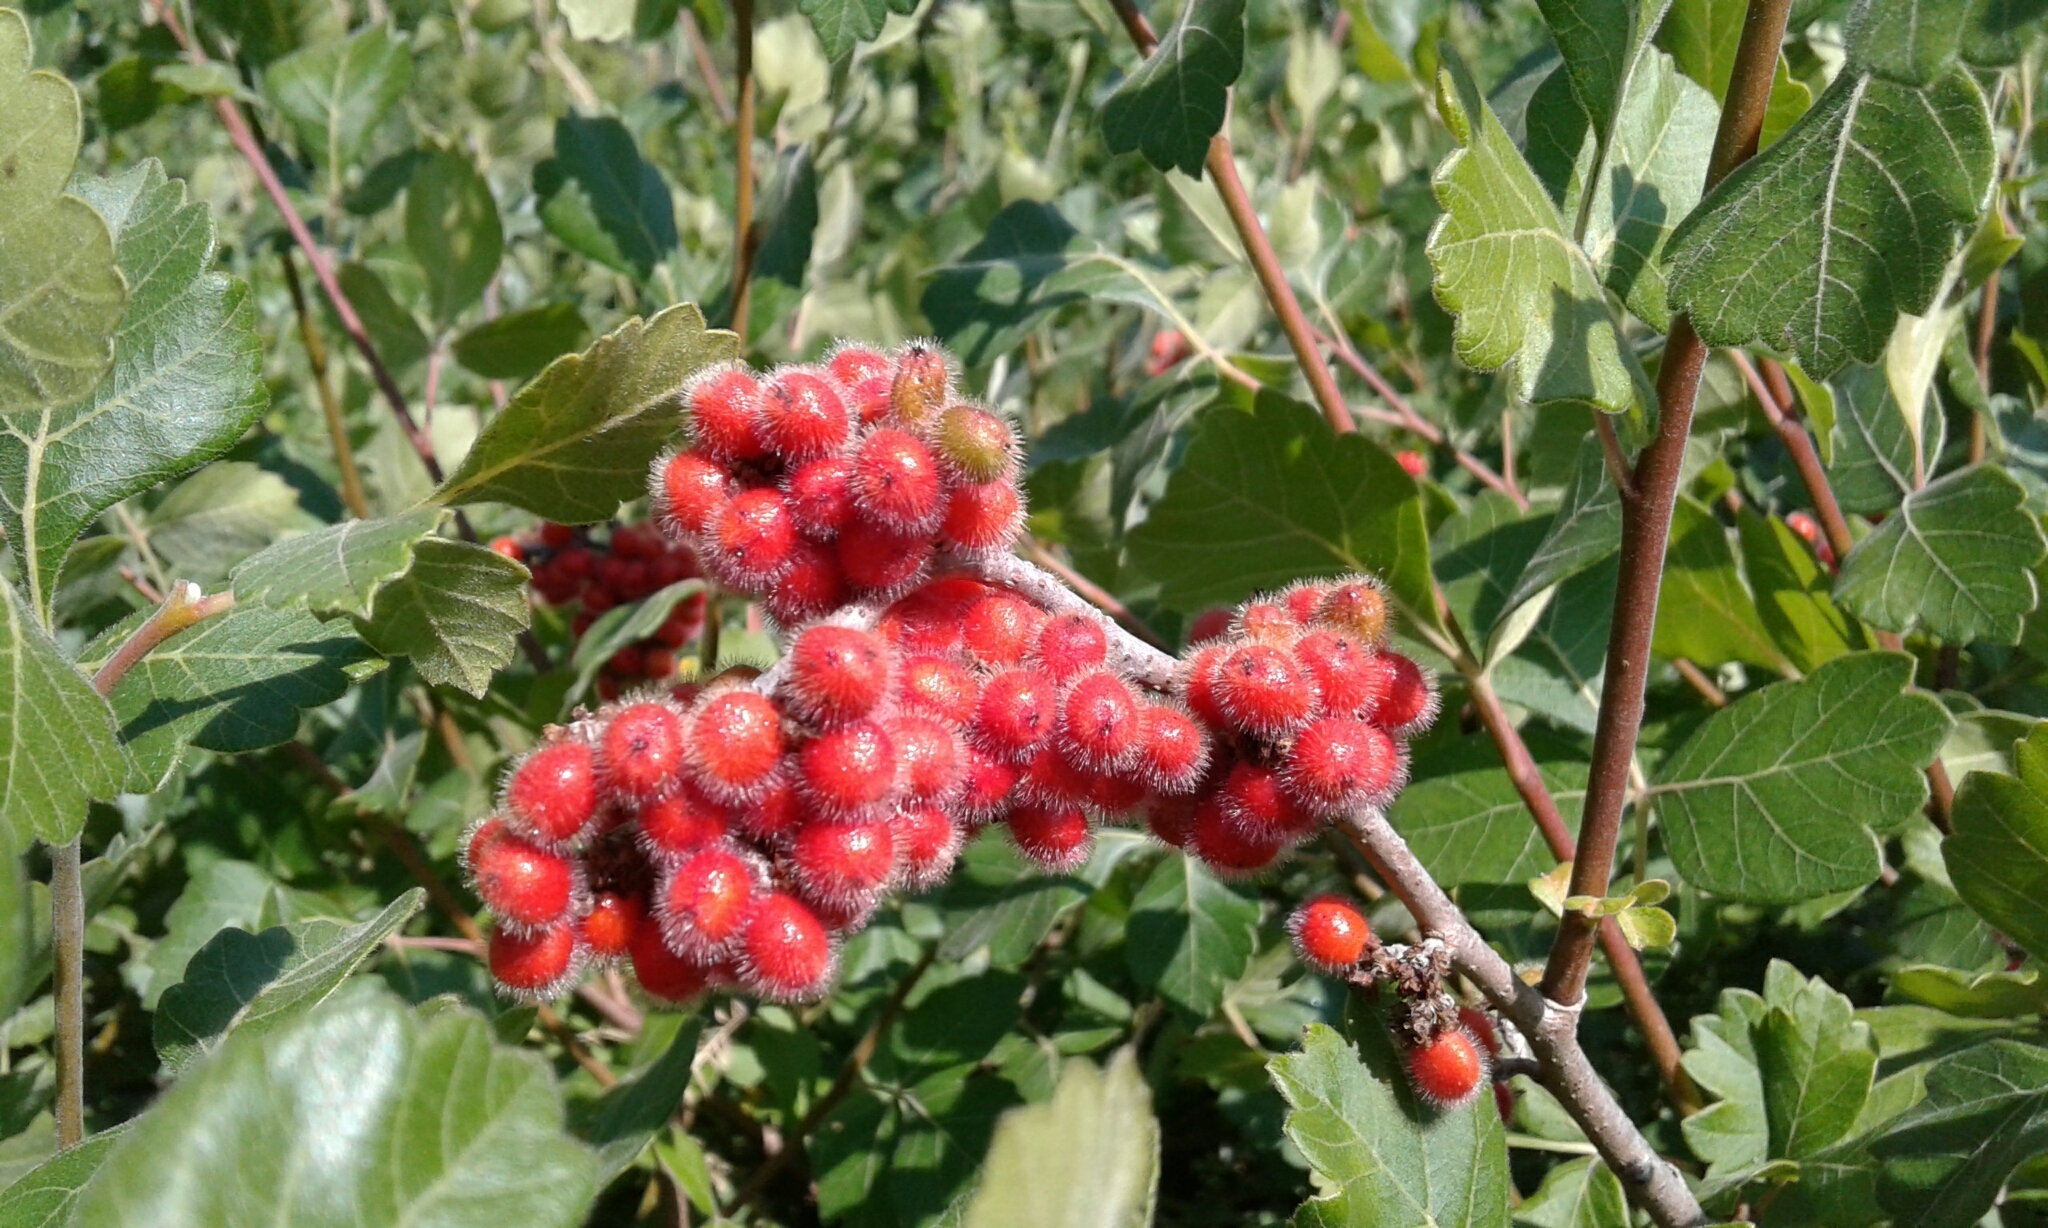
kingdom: Plantae
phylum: Tracheophyta
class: Magnoliopsida
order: Sapindales
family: Anacardiaceae
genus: Rhus
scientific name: Rhus aromatica
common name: Aromatic sumac
